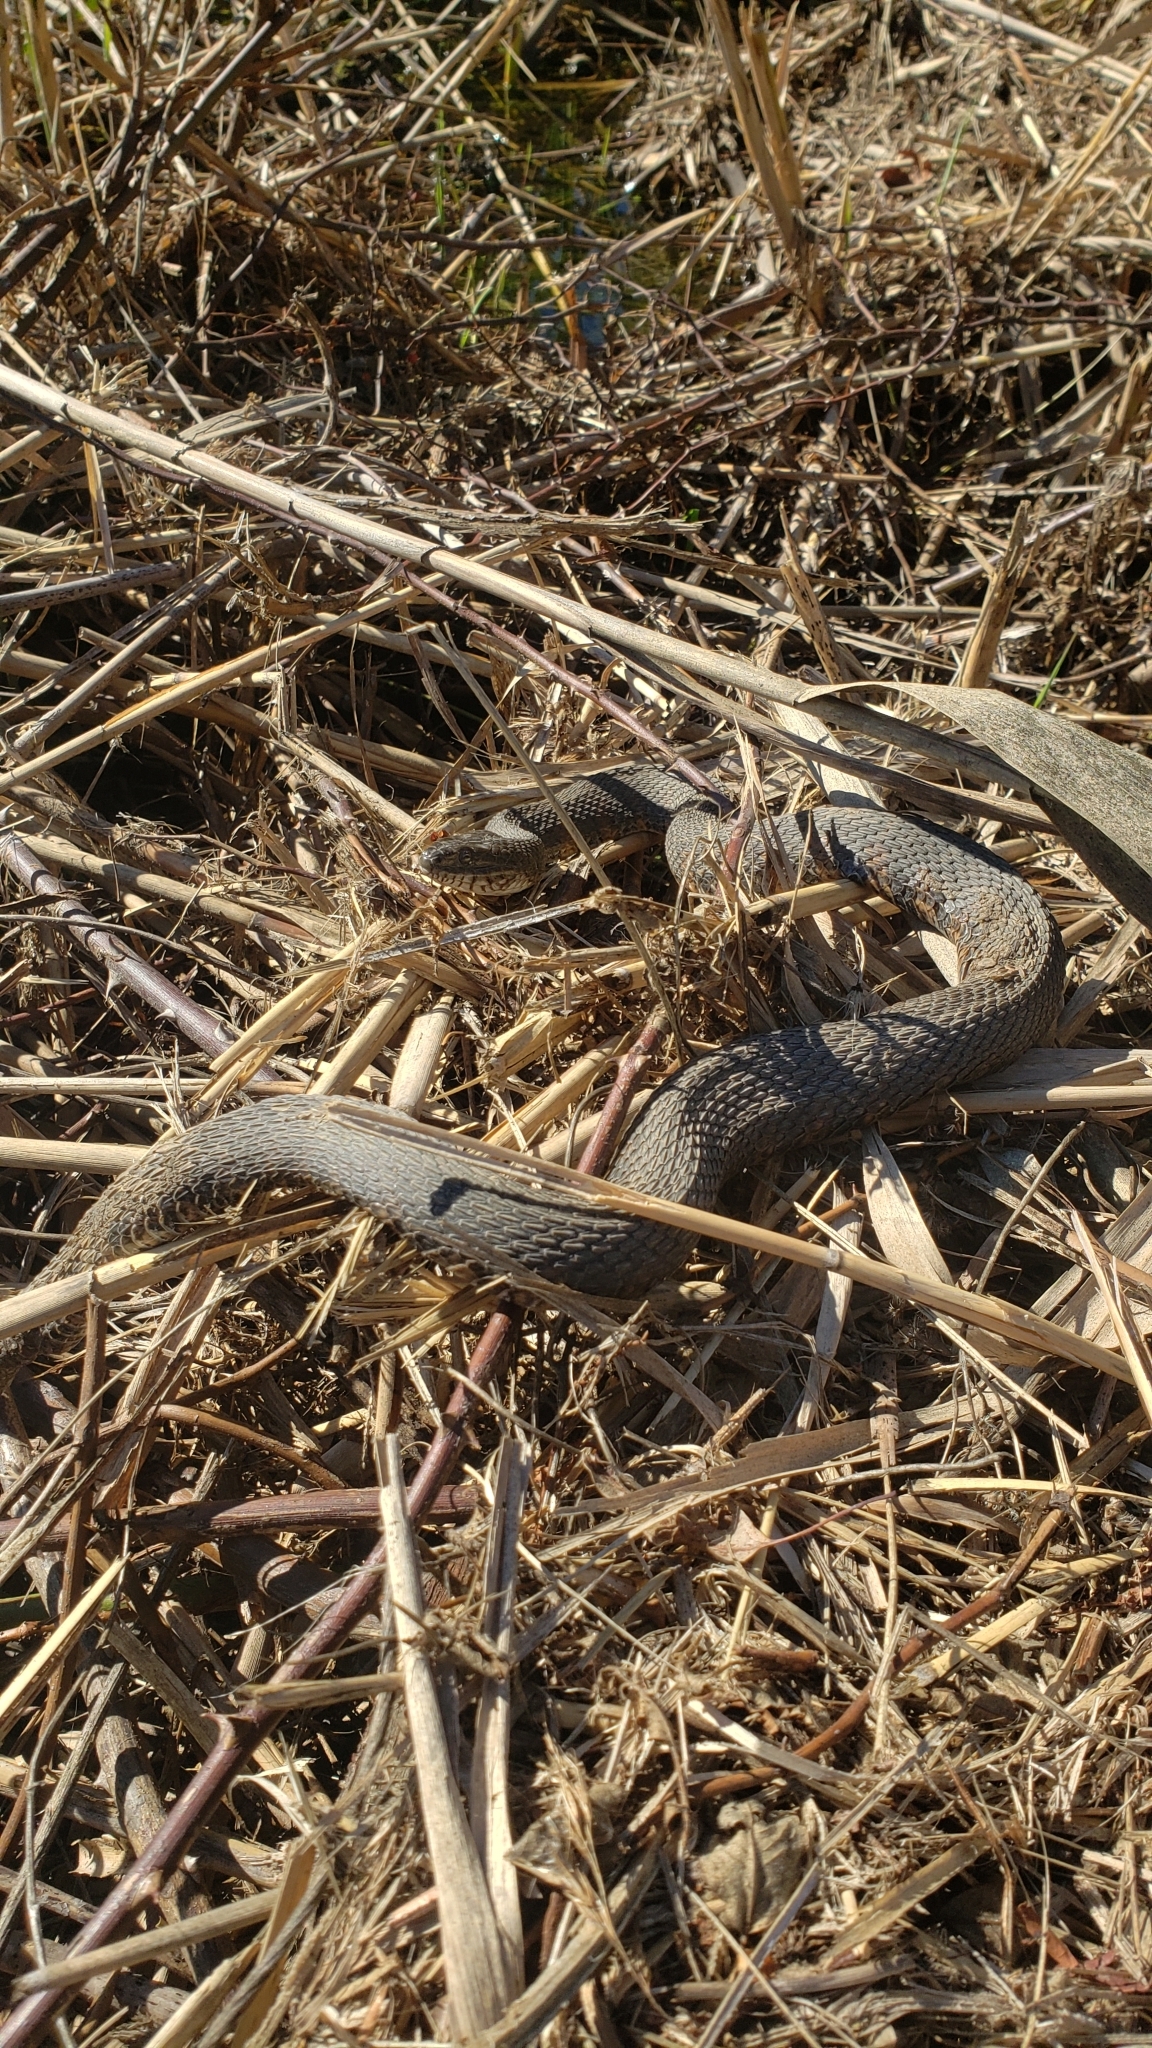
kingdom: Animalia
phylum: Chordata
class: Squamata
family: Colubridae
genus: Nerodia
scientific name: Nerodia sipedon
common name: Northern water snake
